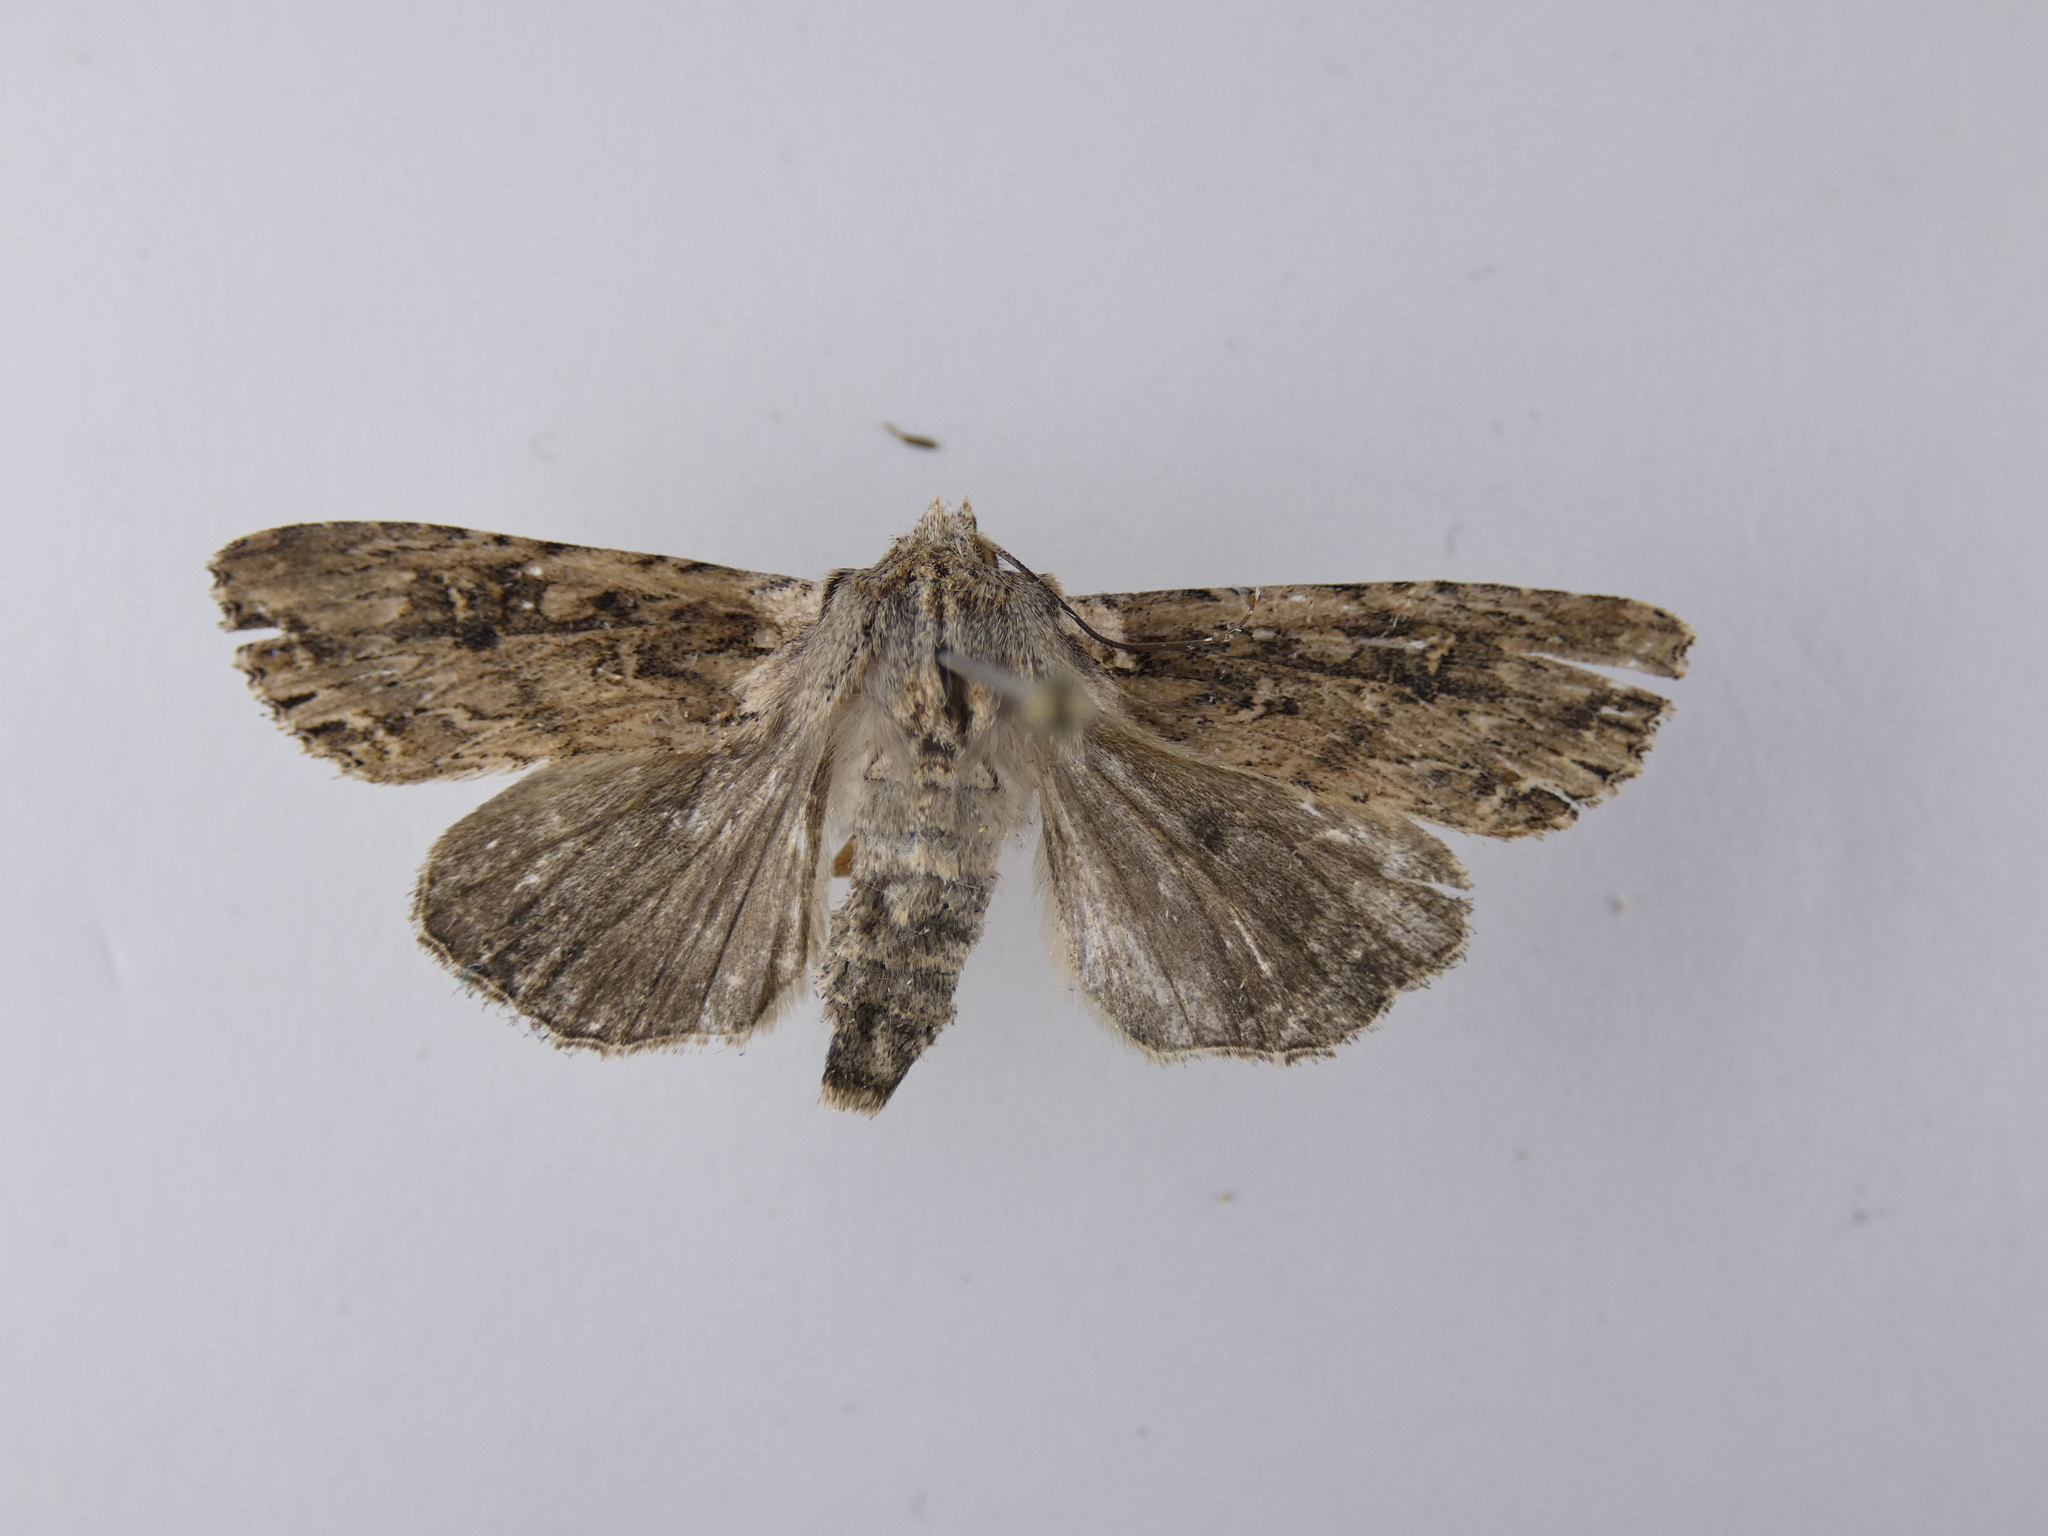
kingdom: Animalia
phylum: Arthropoda
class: Insecta
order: Lepidoptera
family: Noctuidae
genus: Ichneutica
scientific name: Ichneutica lignana
